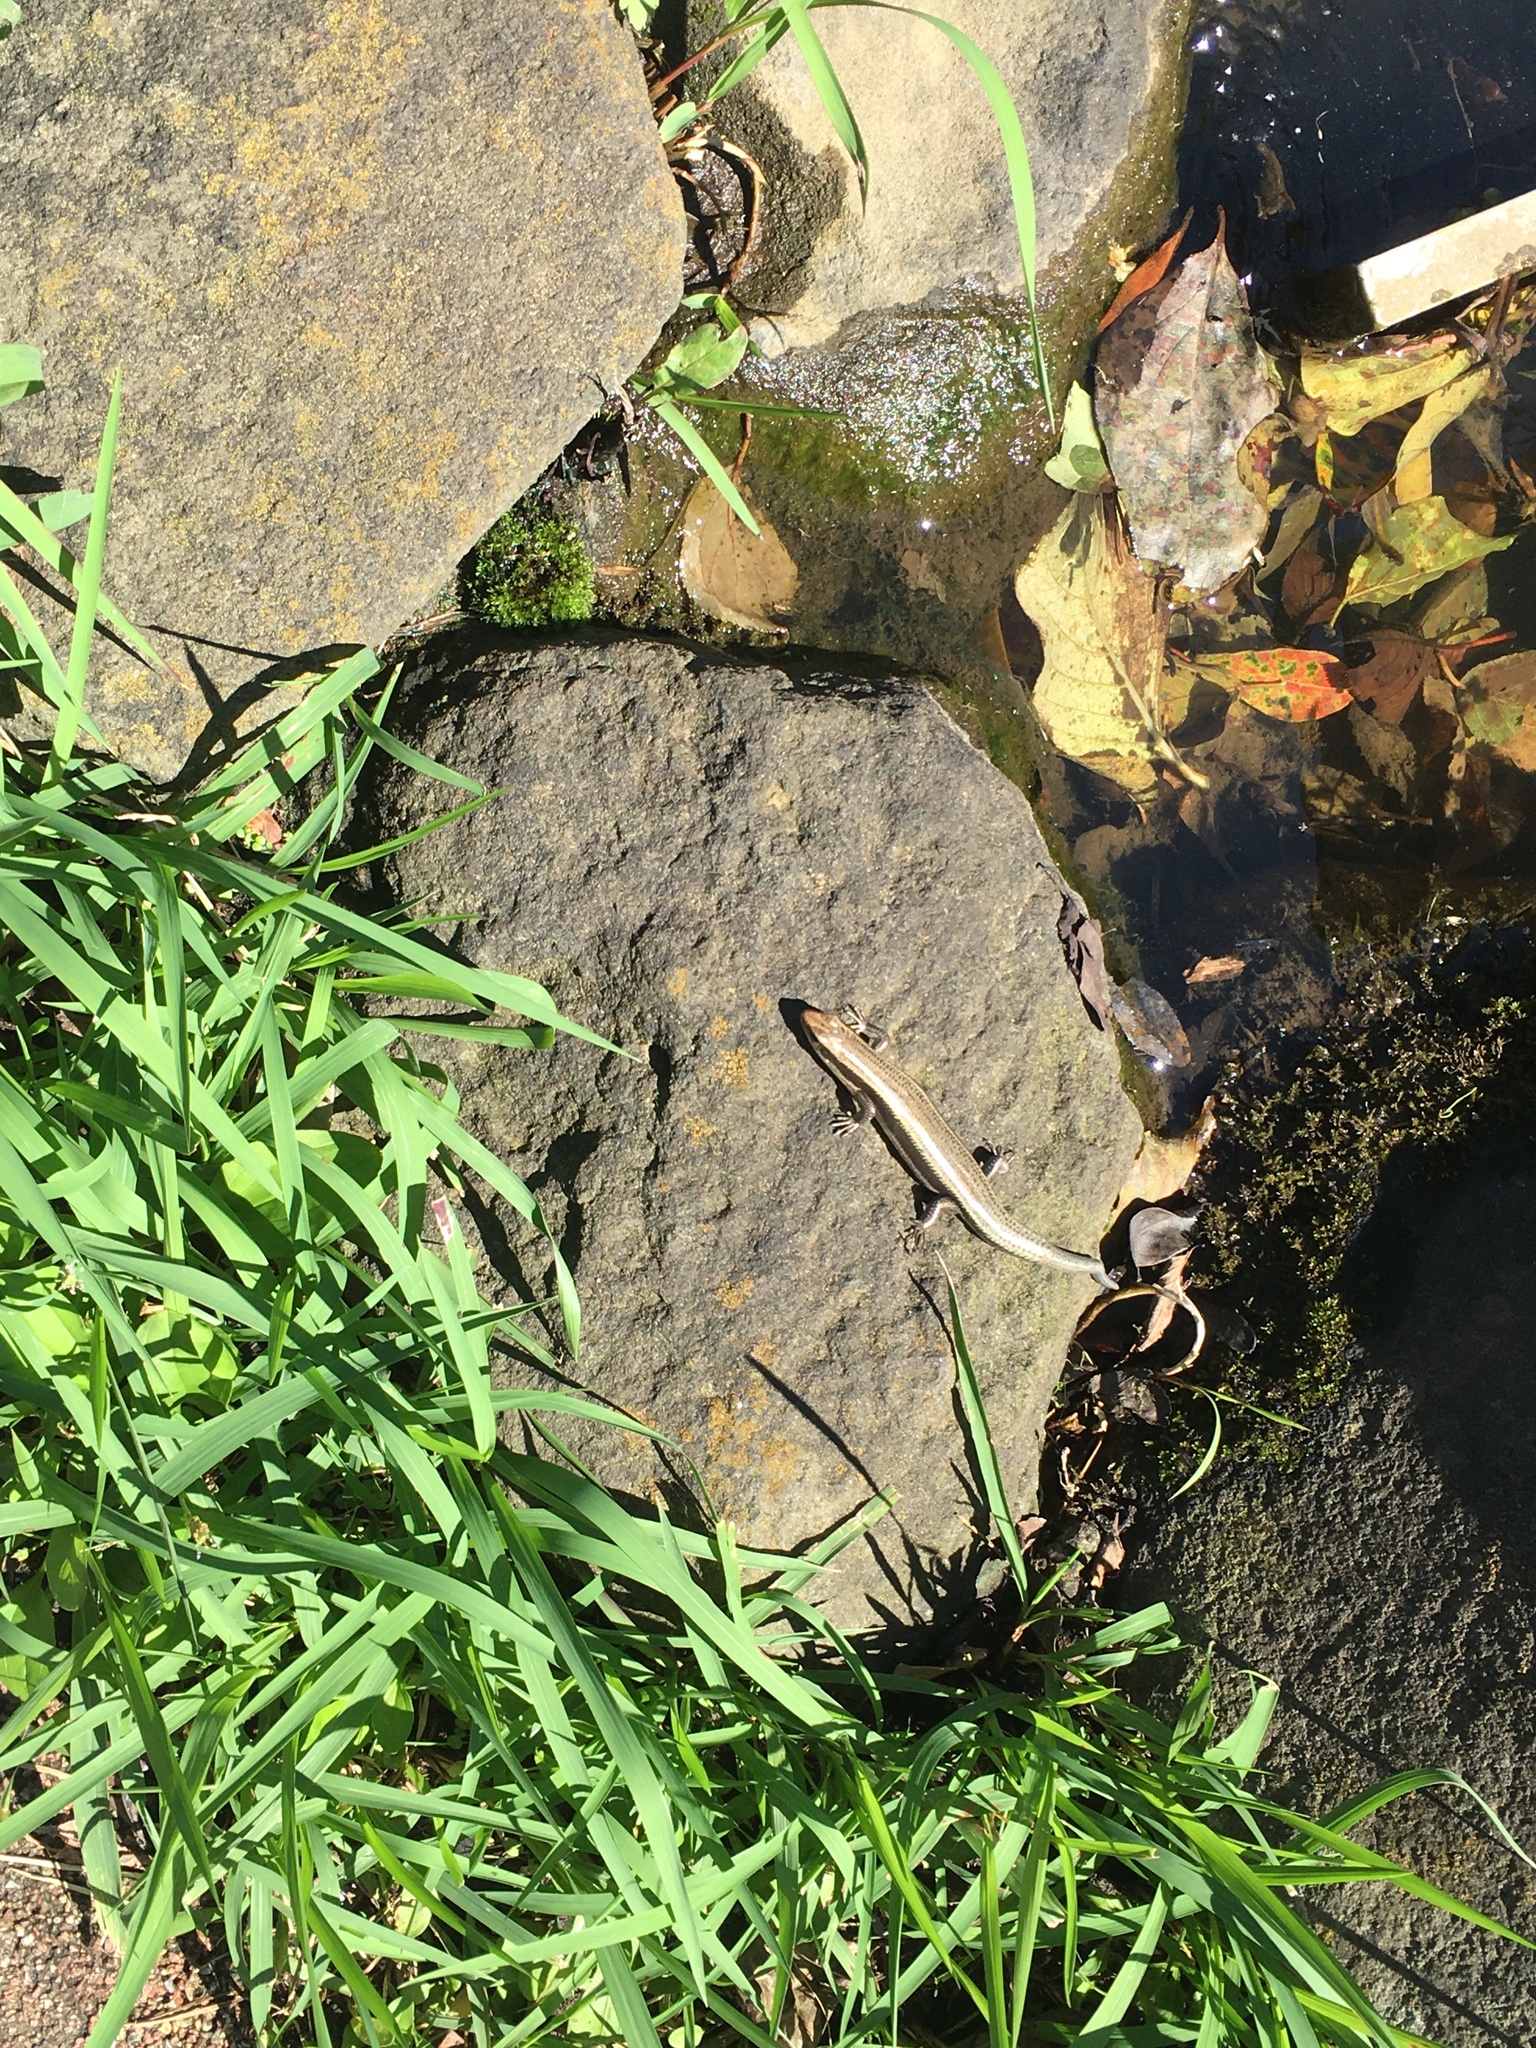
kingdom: Animalia
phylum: Chordata
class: Squamata
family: Scincidae
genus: Plestiodon
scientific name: Plestiodon finitimus
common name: Far eastern skink
